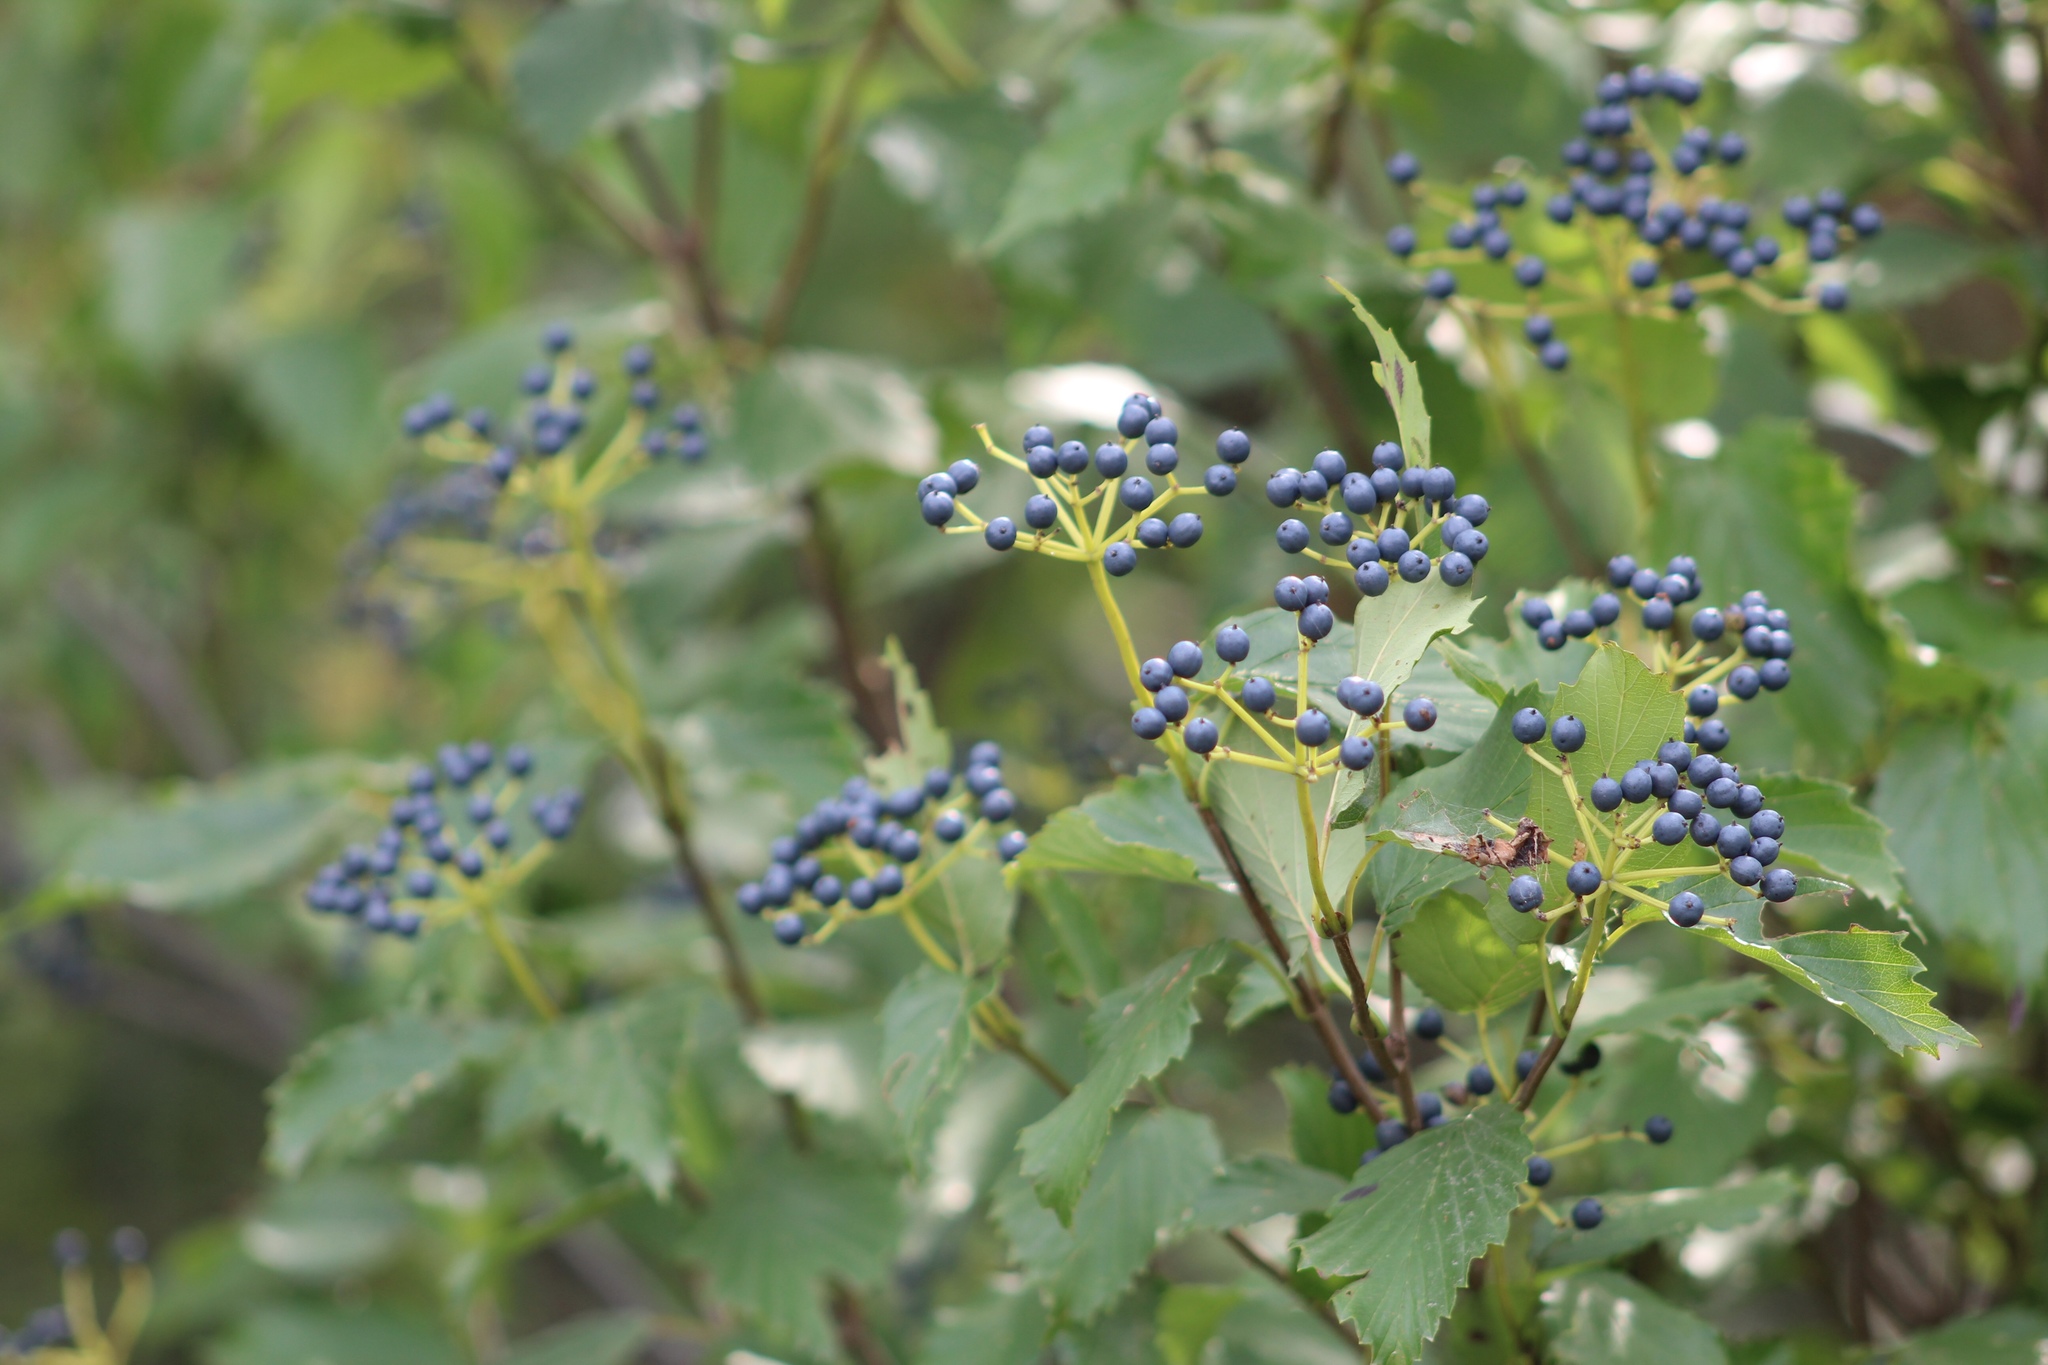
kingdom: Plantae
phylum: Tracheophyta
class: Magnoliopsida
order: Dipsacales
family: Viburnaceae
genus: Viburnum
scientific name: Viburnum dentatum
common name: Arrow-wood
